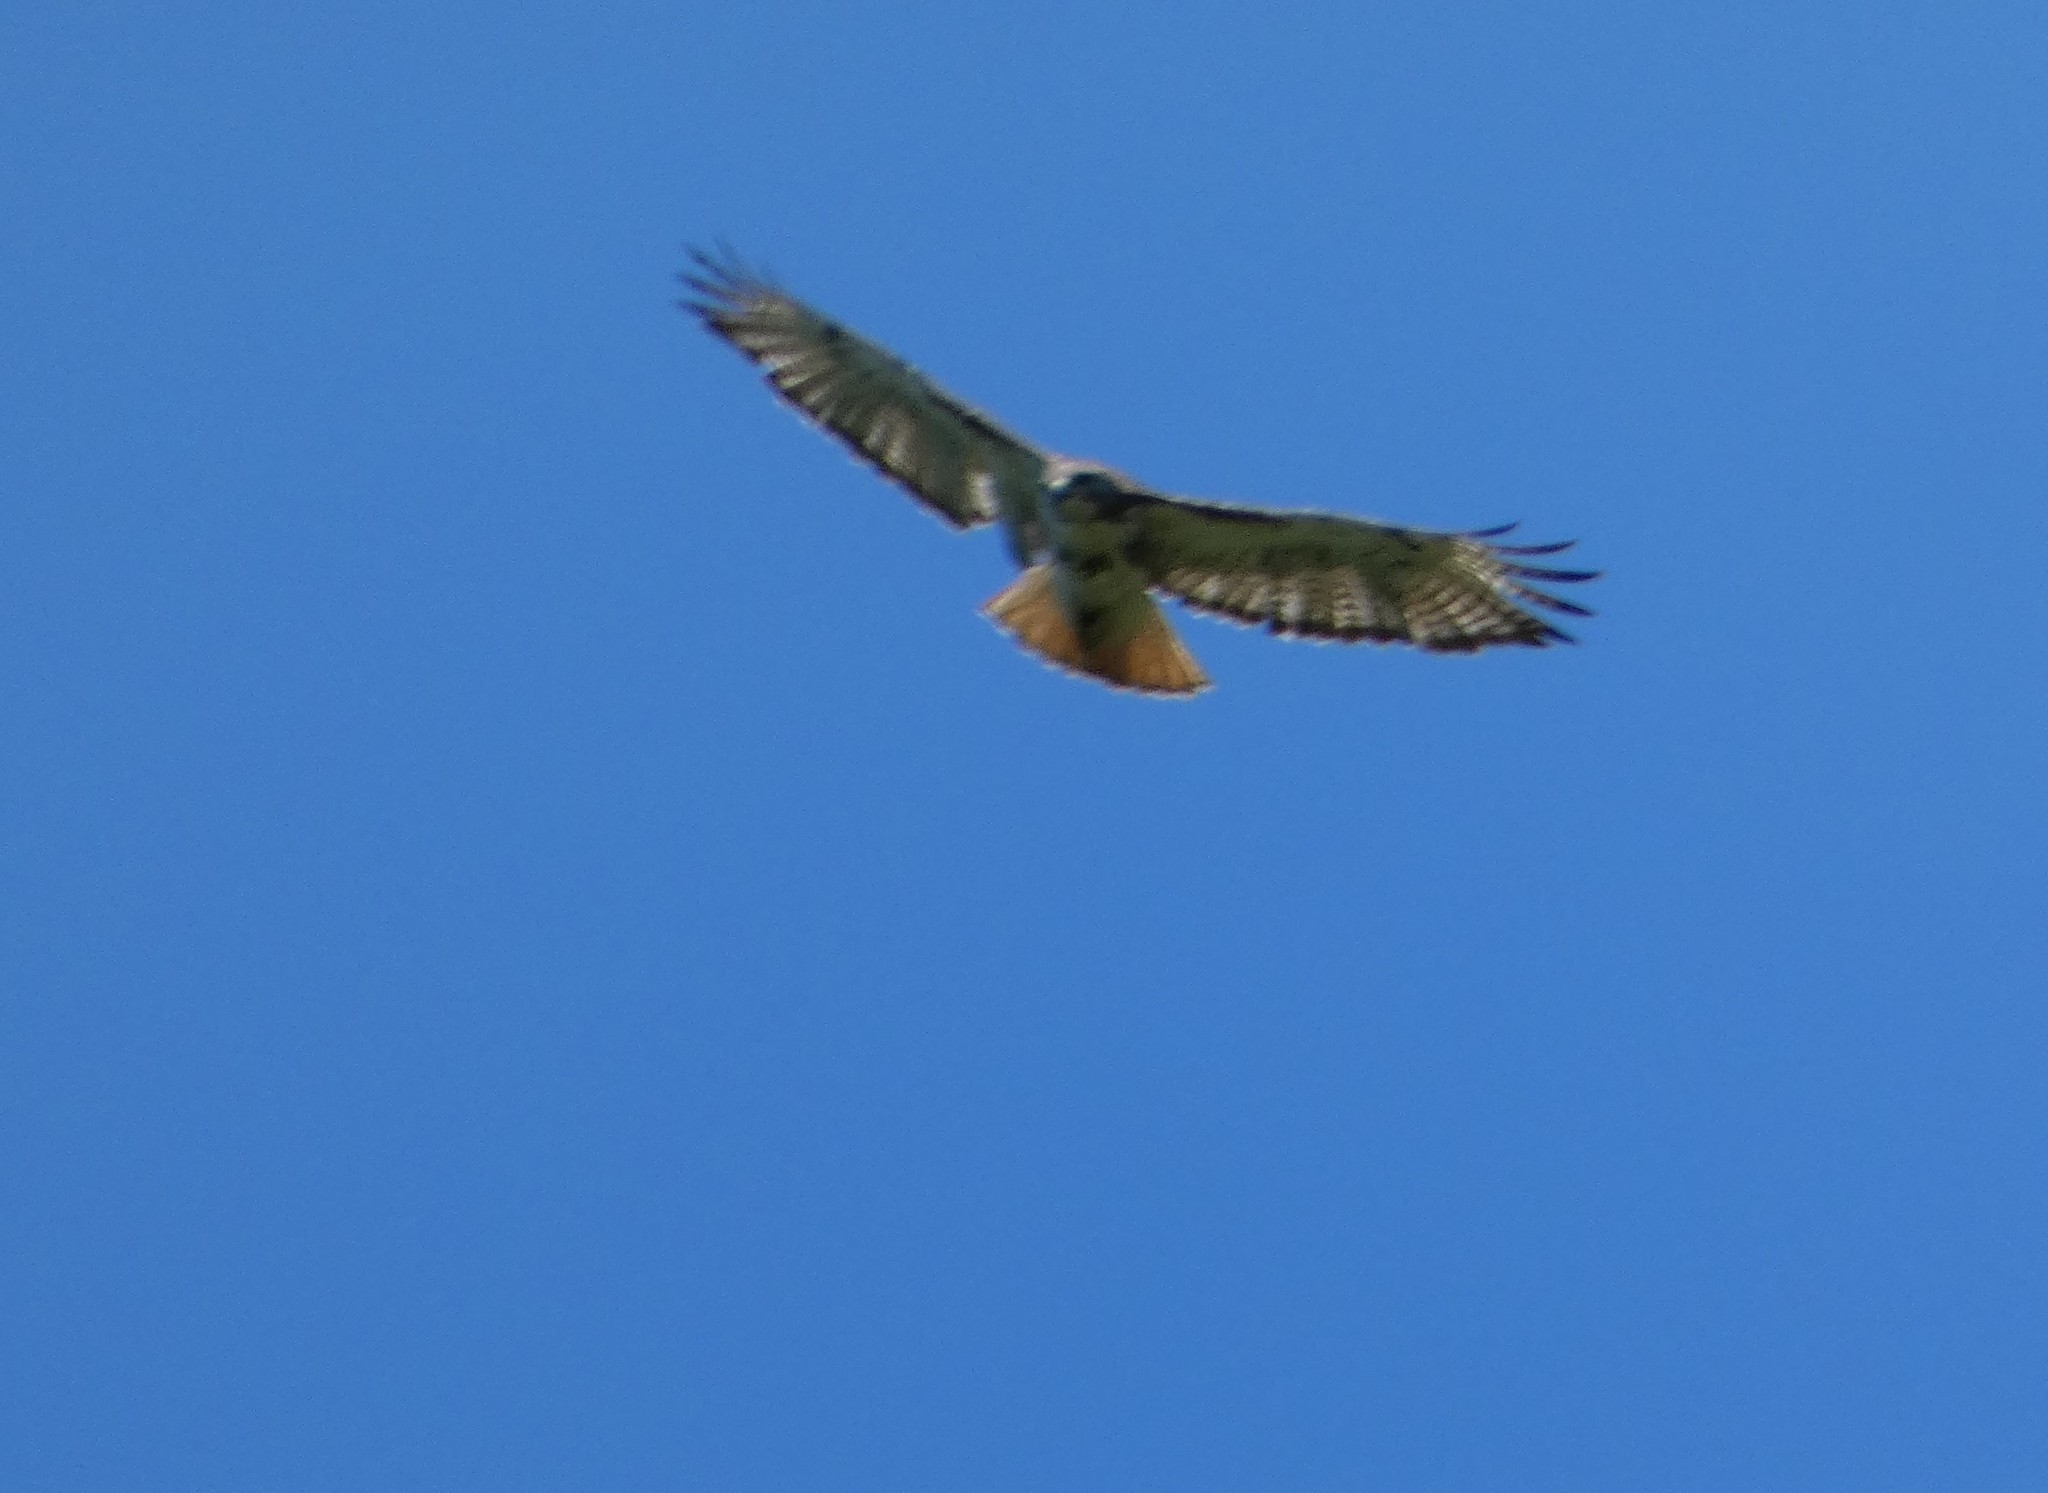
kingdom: Animalia
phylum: Chordata
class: Aves
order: Accipitriformes
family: Accipitridae
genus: Buteo
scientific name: Buteo jamaicensis
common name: Red-tailed hawk
